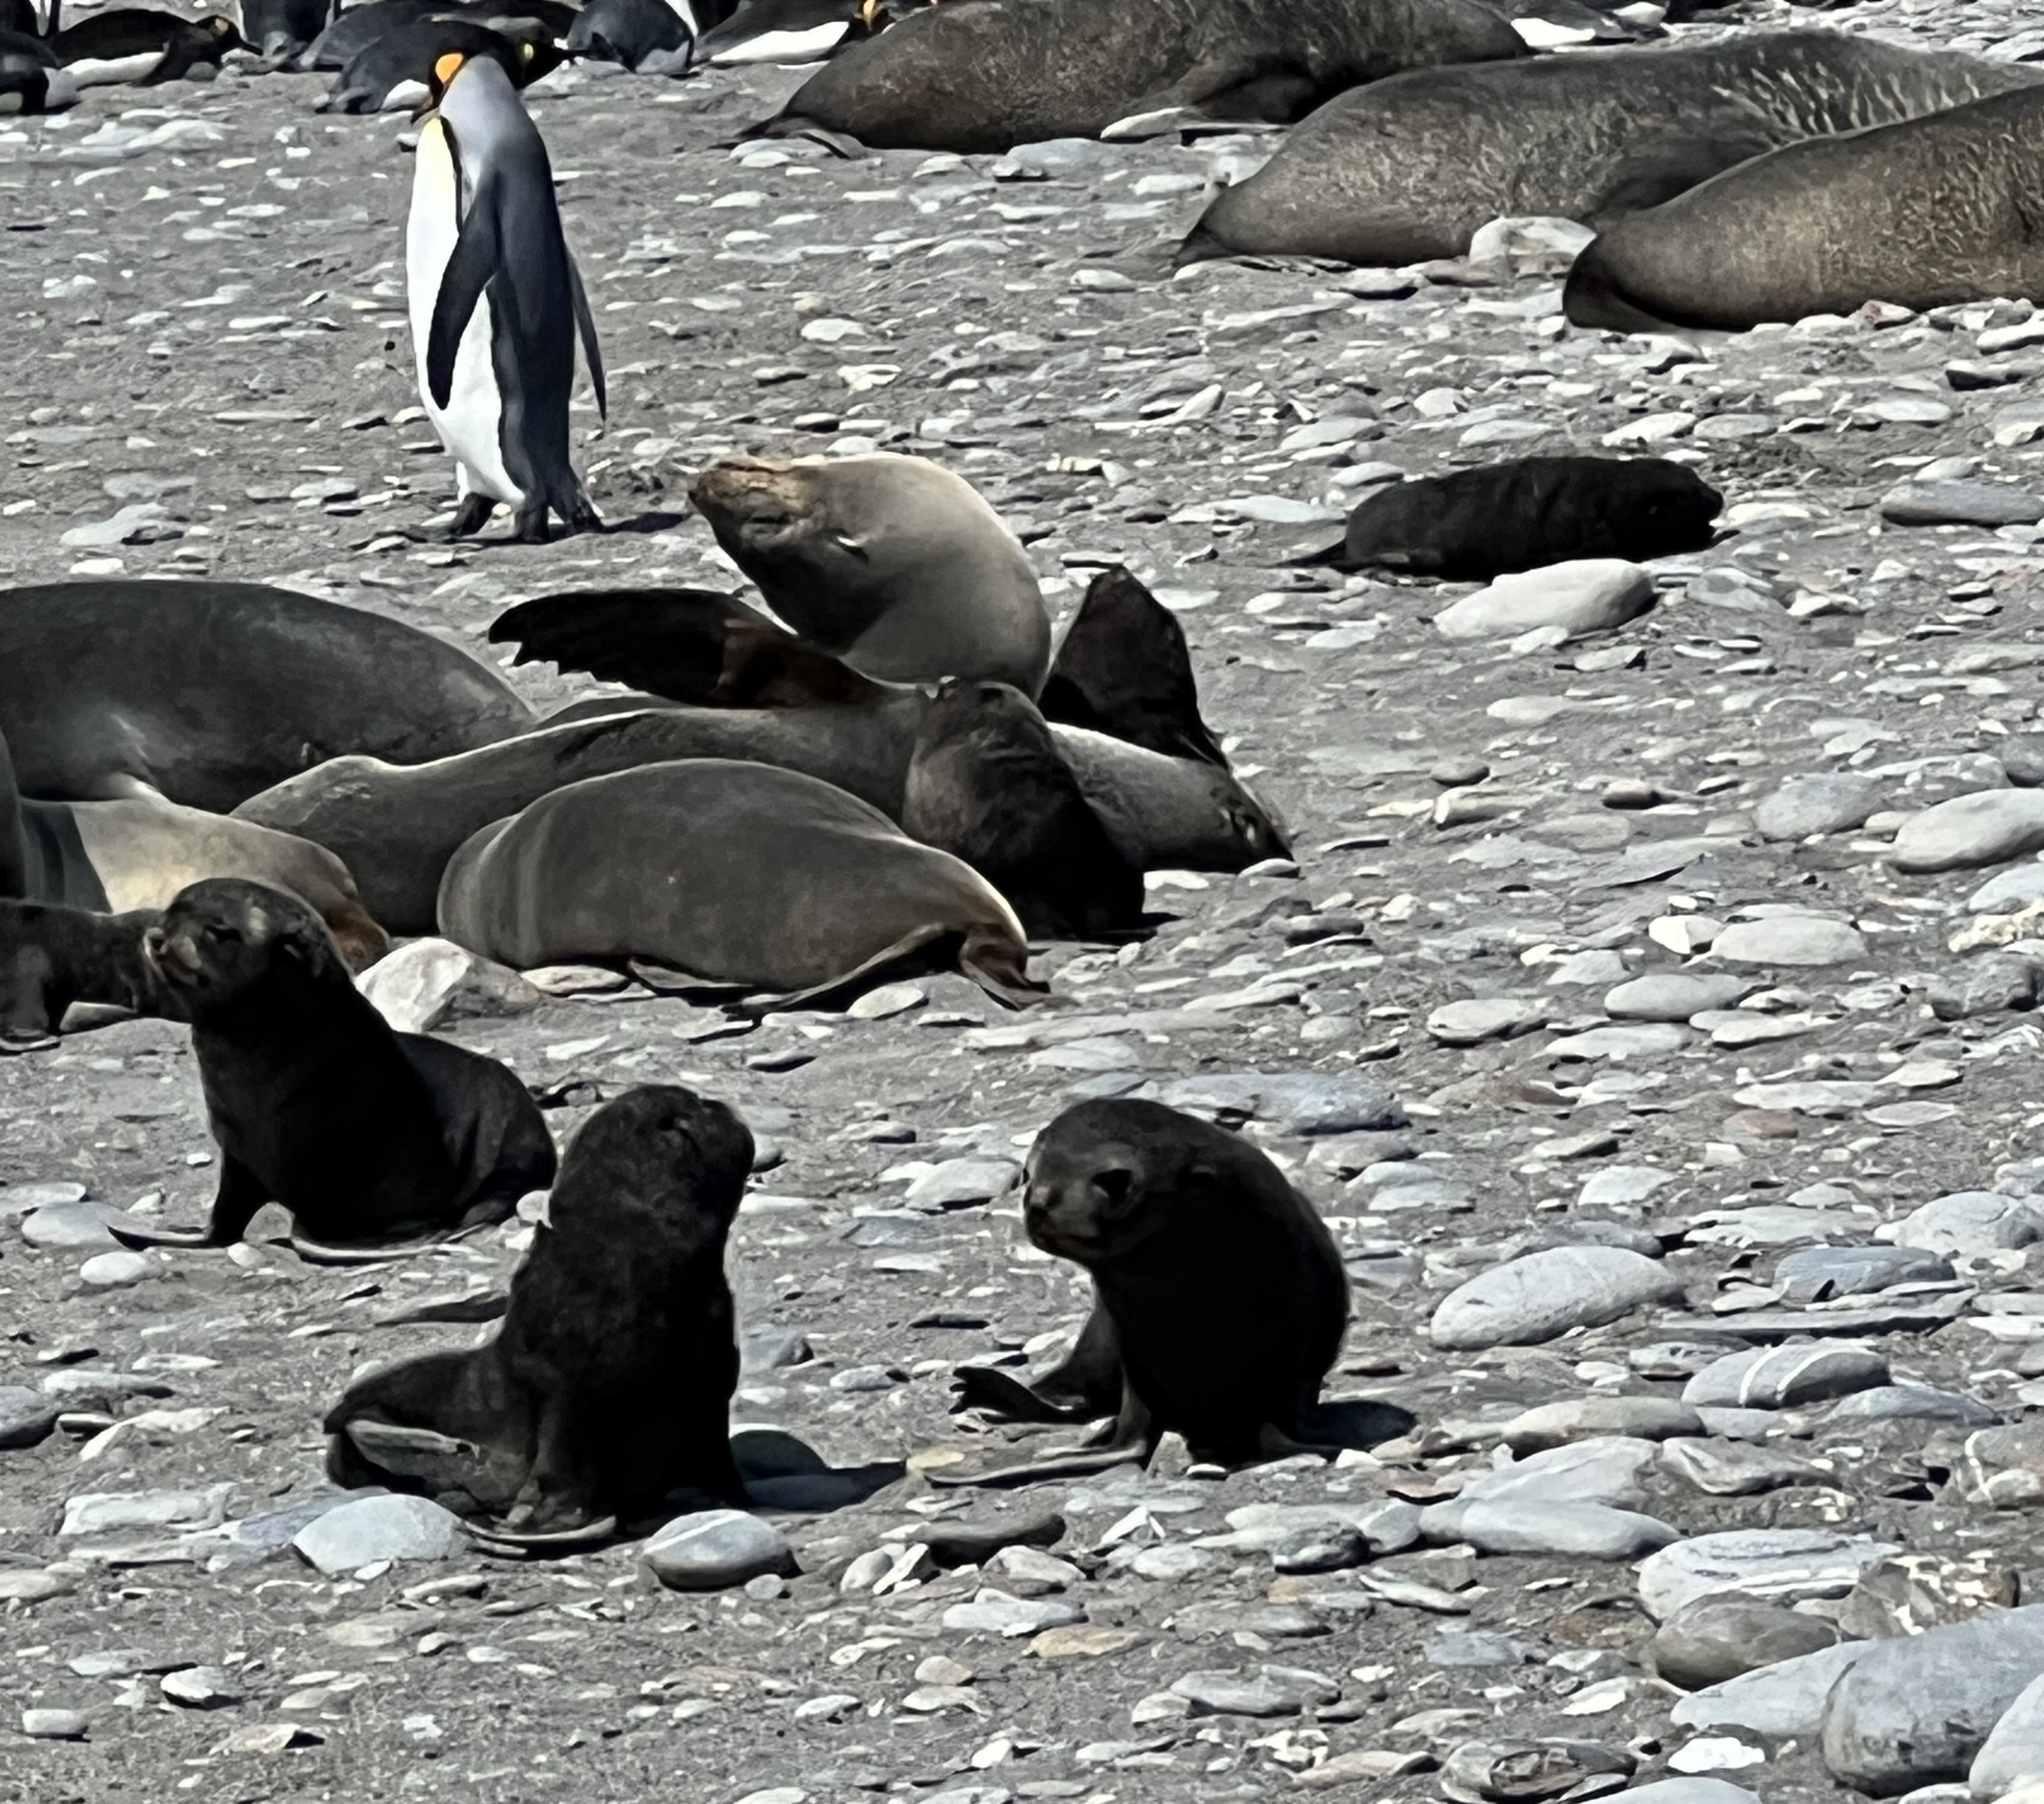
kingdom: Animalia
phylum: Chordata
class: Mammalia
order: Carnivora
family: Otariidae
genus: Arctocephalus
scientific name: Arctocephalus gazella
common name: Antarctic fur seal
